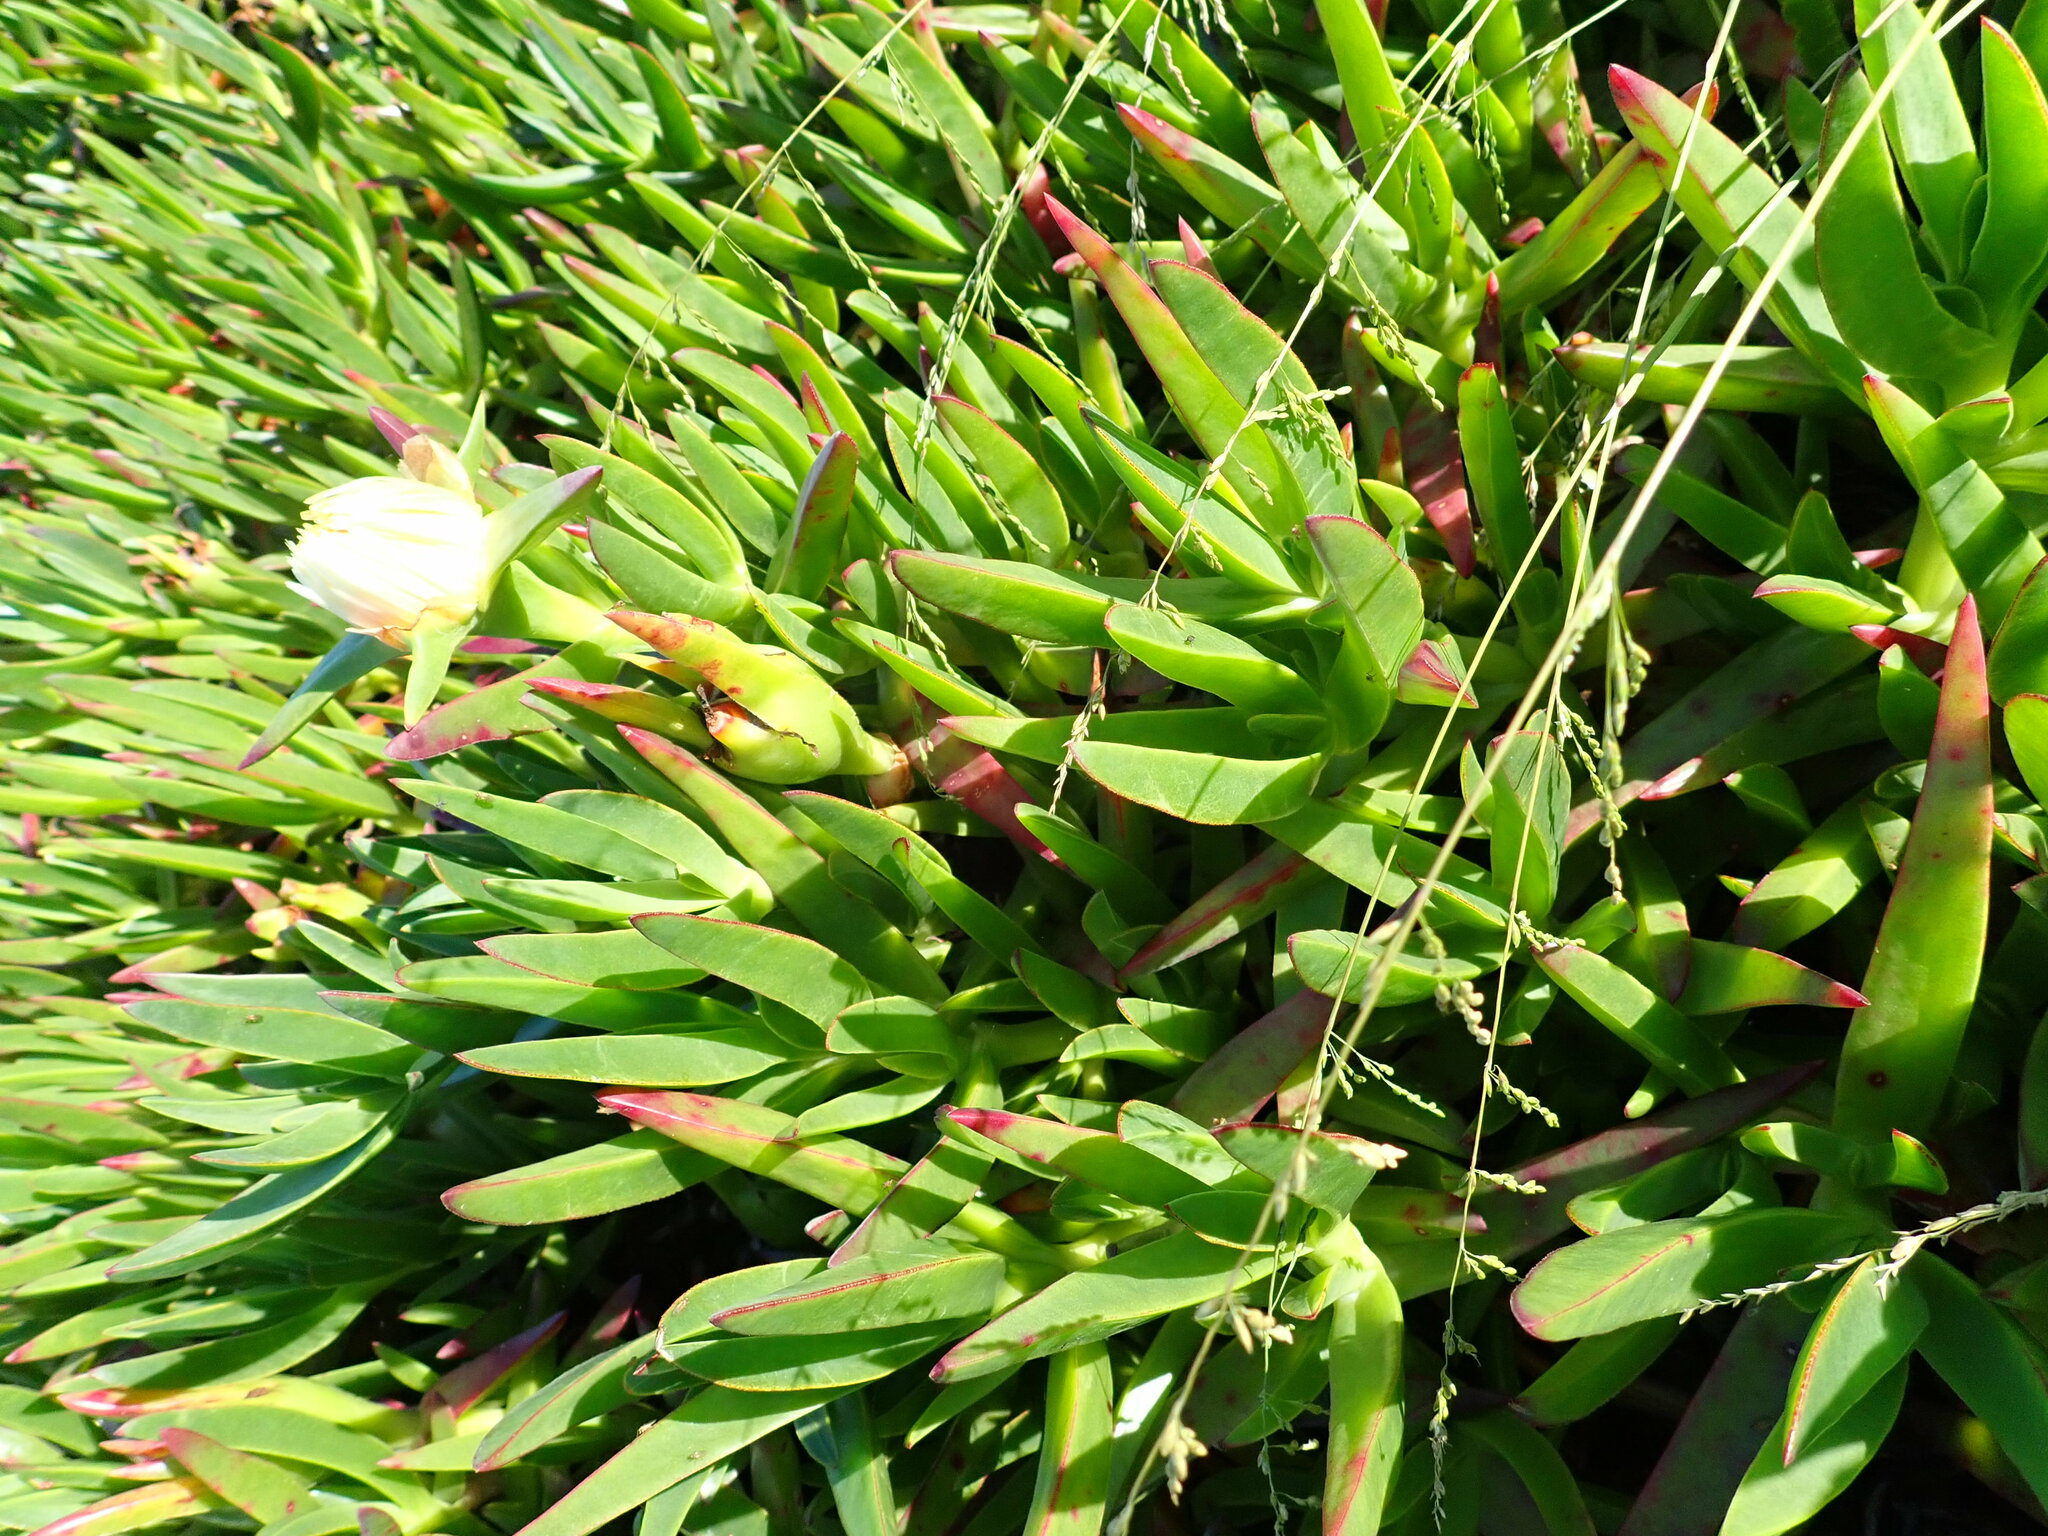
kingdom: Plantae
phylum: Tracheophyta
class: Magnoliopsida
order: Caryophyllales
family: Aizoaceae
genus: Carpobrotus
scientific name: Carpobrotus edulis
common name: Hottentot-fig
